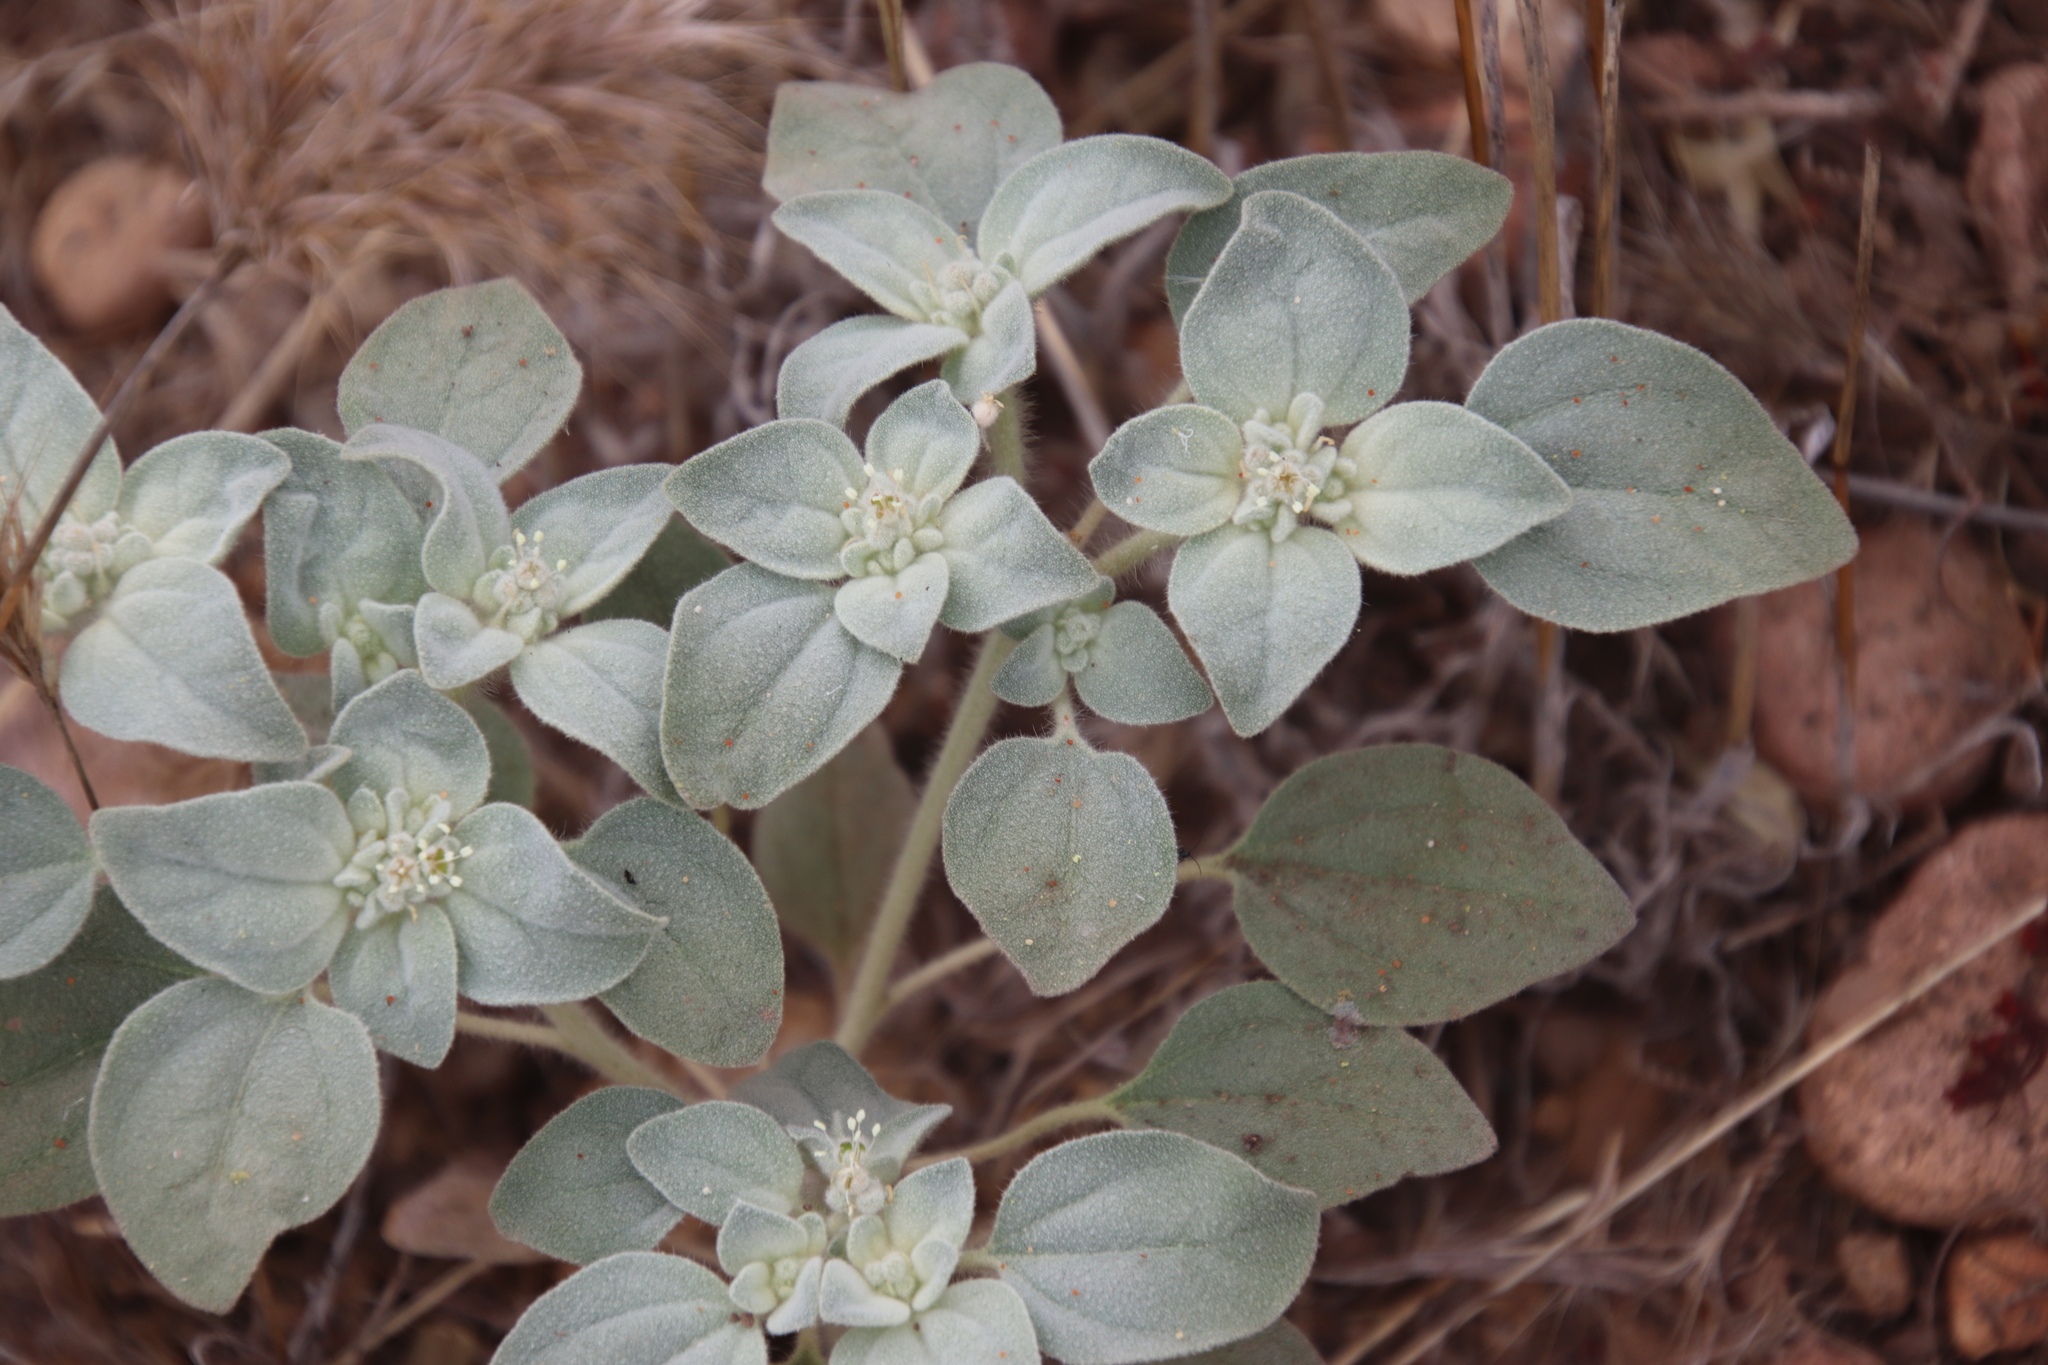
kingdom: Plantae
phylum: Tracheophyta
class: Magnoliopsida
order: Malpighiales
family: Euphorbiaceae
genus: Croton
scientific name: Croton setiger
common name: Dove weed
